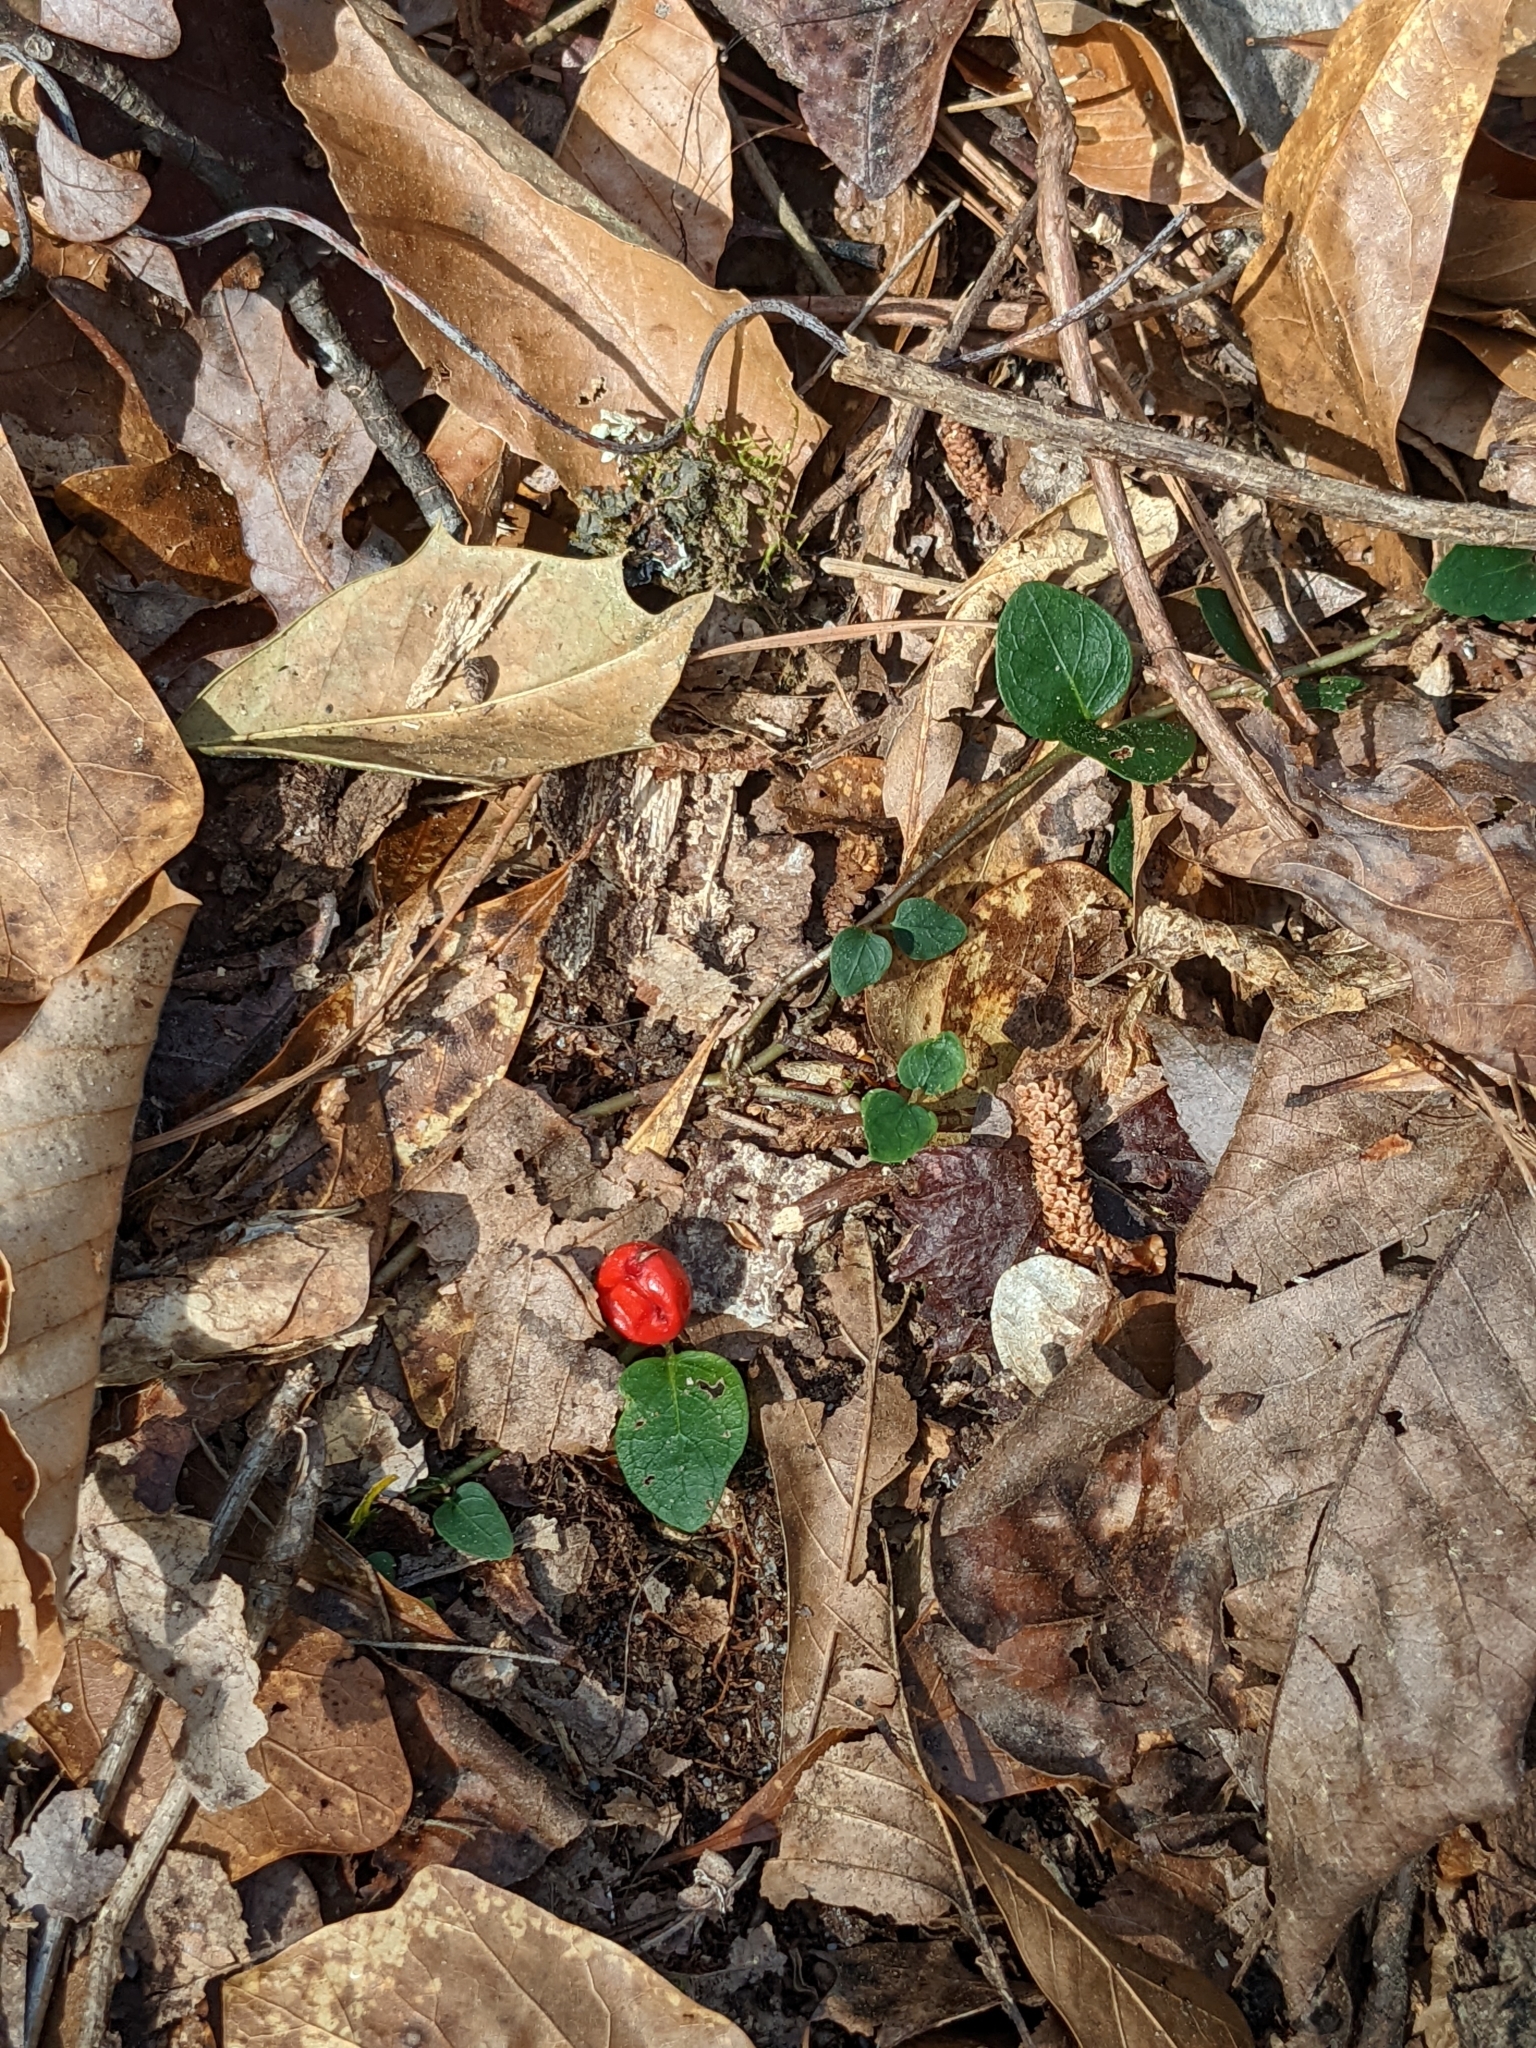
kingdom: Plantae
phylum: Tracheophyta
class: Magnoliopsida
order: Gentianales
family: Rubiaceae
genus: Mitchella
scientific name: Mitchella repens
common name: Partridge-berry
